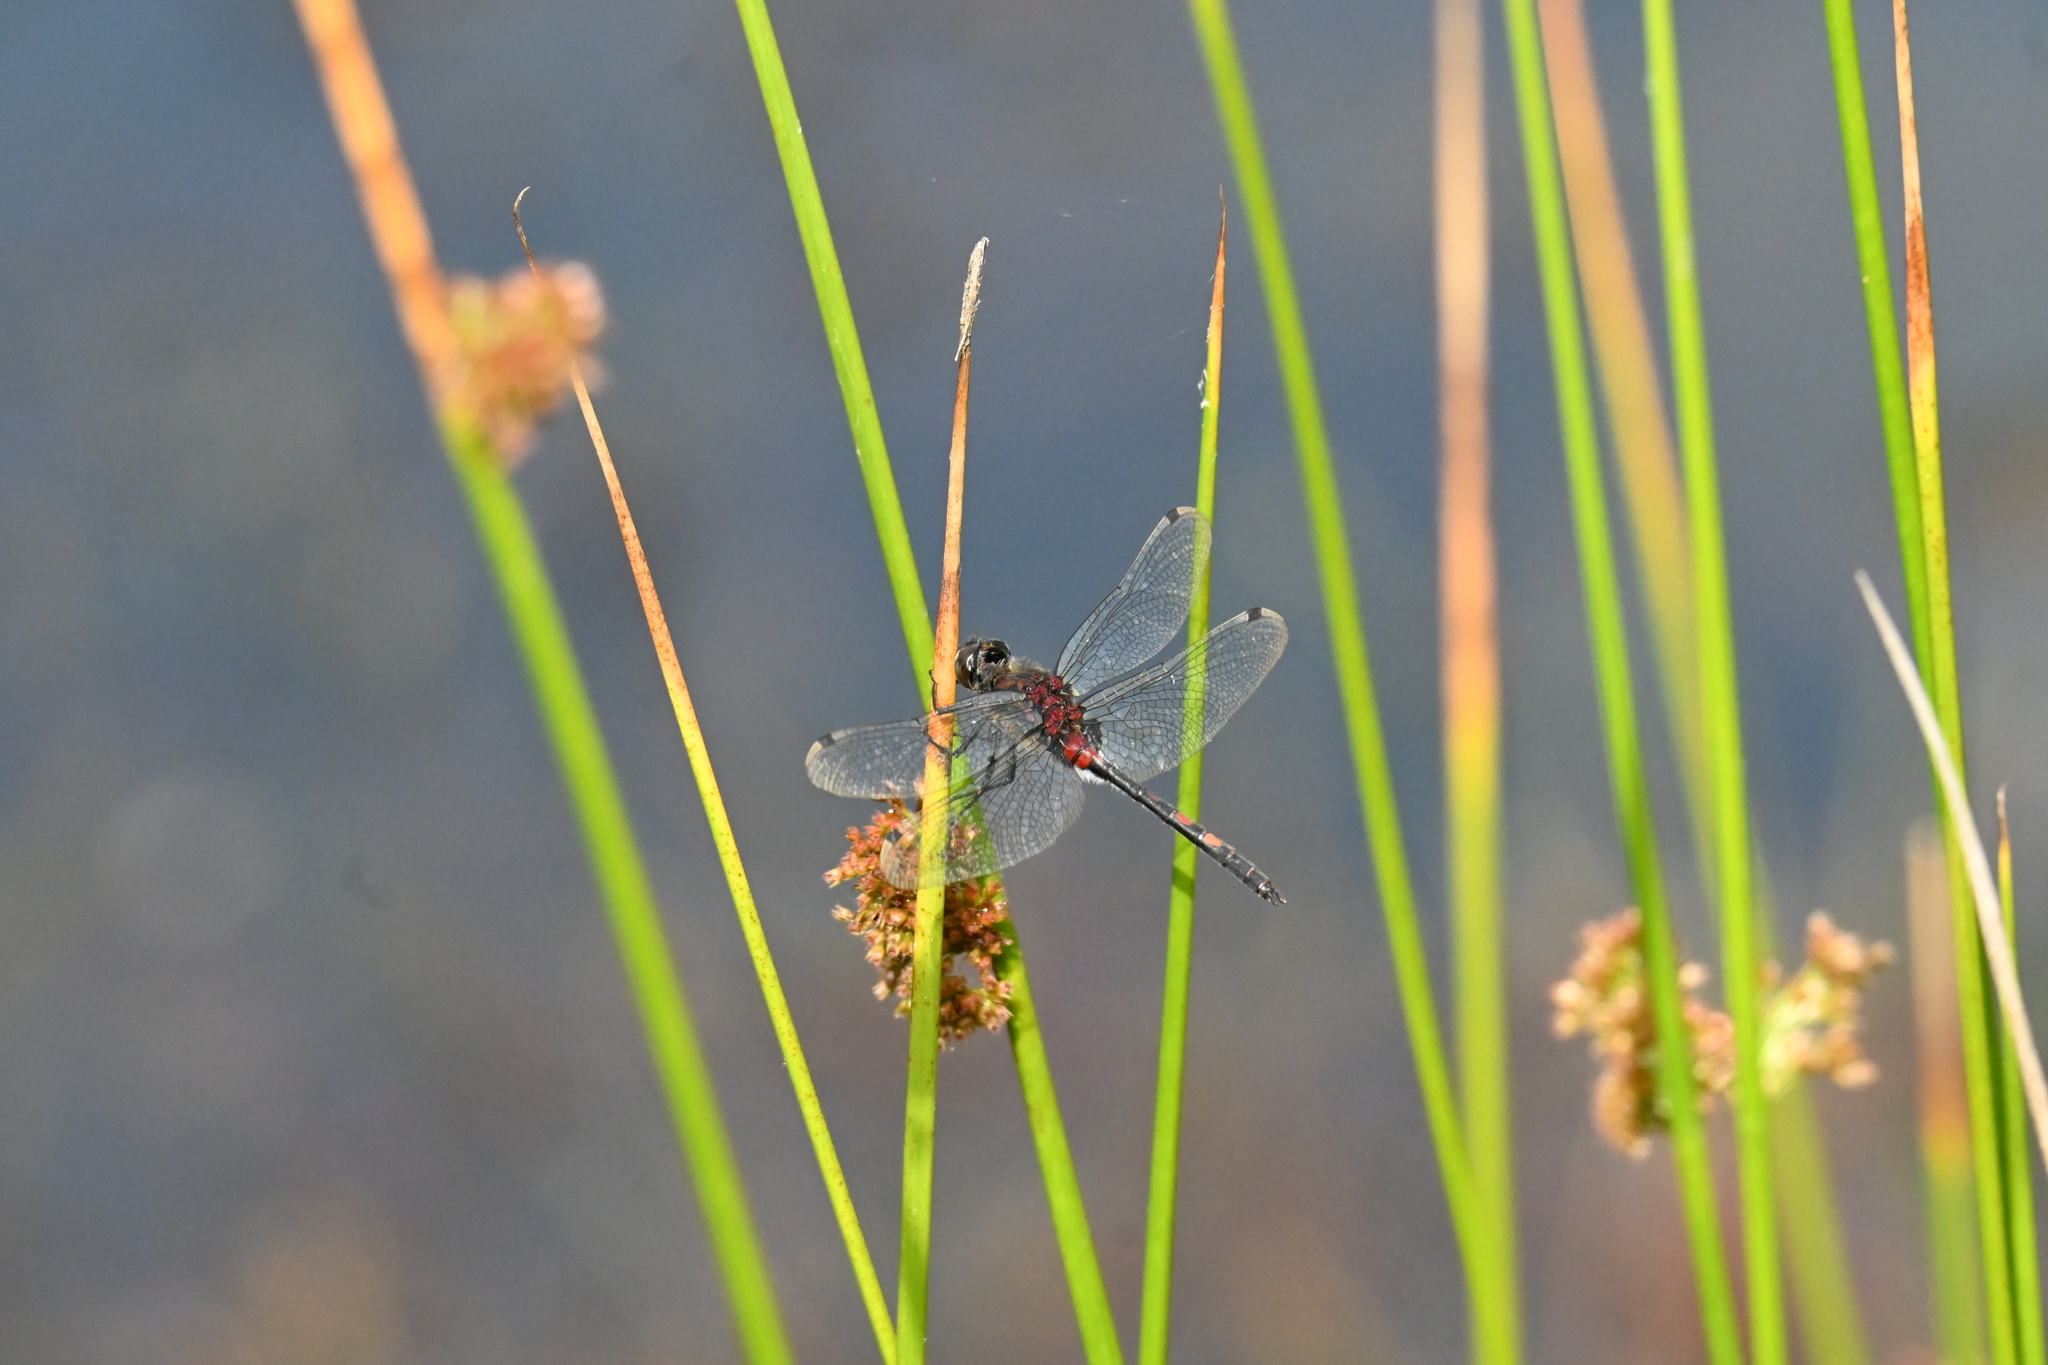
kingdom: Animalia
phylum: Arthropoda
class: Insecta
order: Odonata
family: Libellulidae
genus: Leucorrhinia
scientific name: Leucorrhinia dubia
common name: White-faced darter
